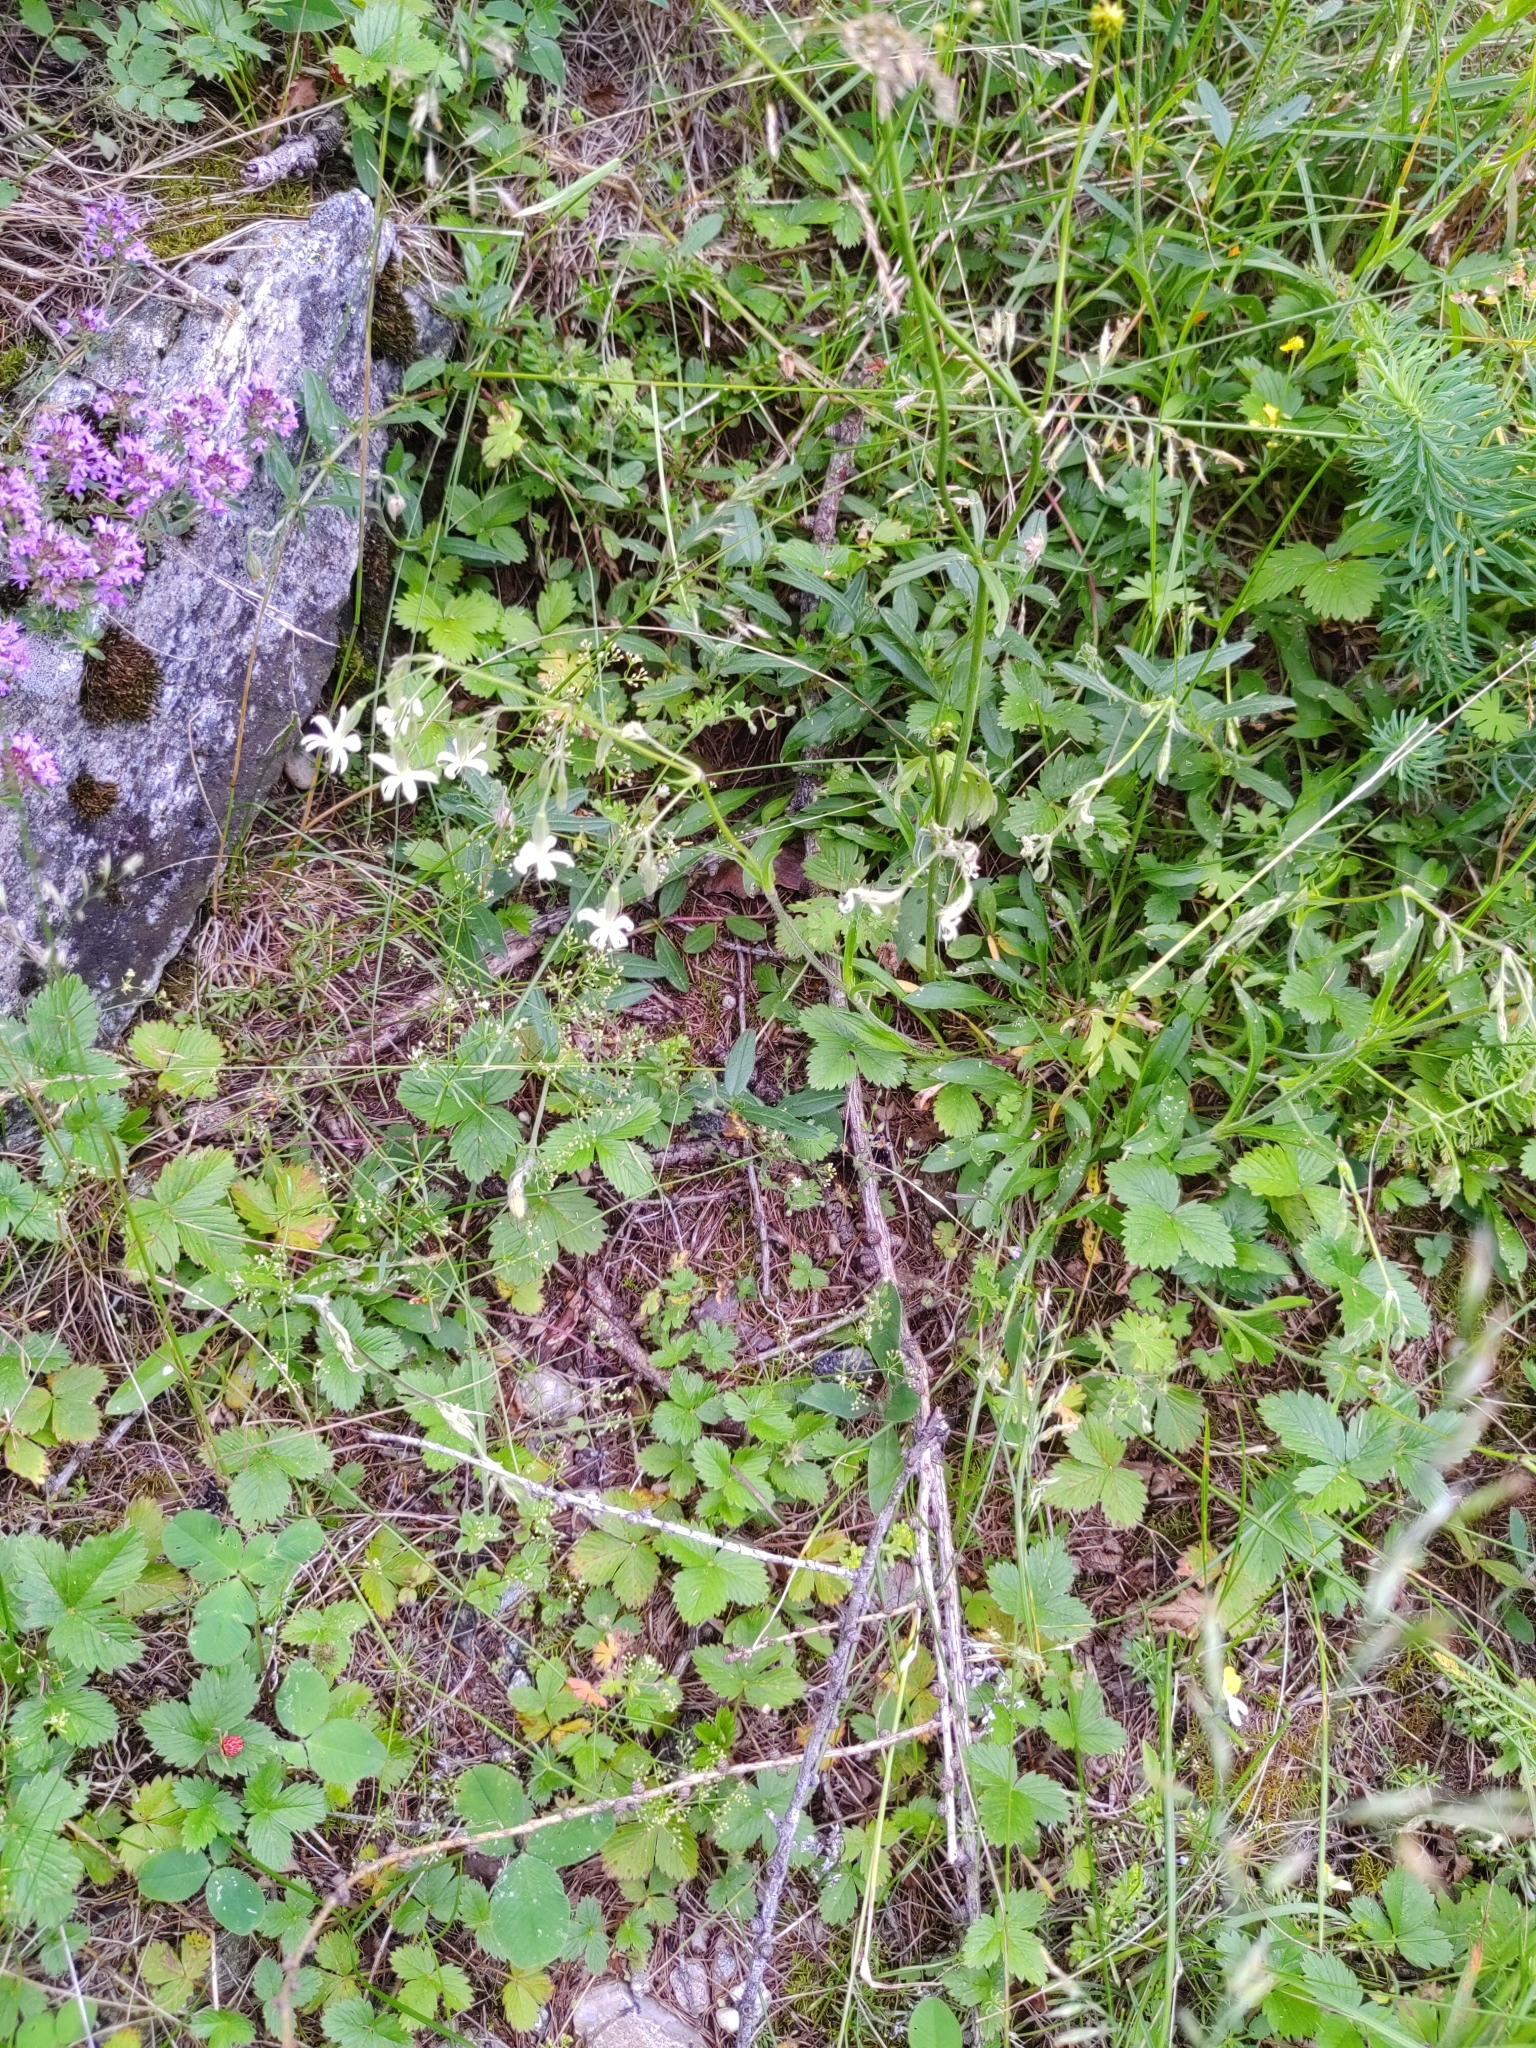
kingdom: Plantae
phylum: Tracheophyta
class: Magnoliopsida
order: Caryophyllales
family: Caryophyllaceae
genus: Silene
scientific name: Silene nutans
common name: Nottingham catchfly
